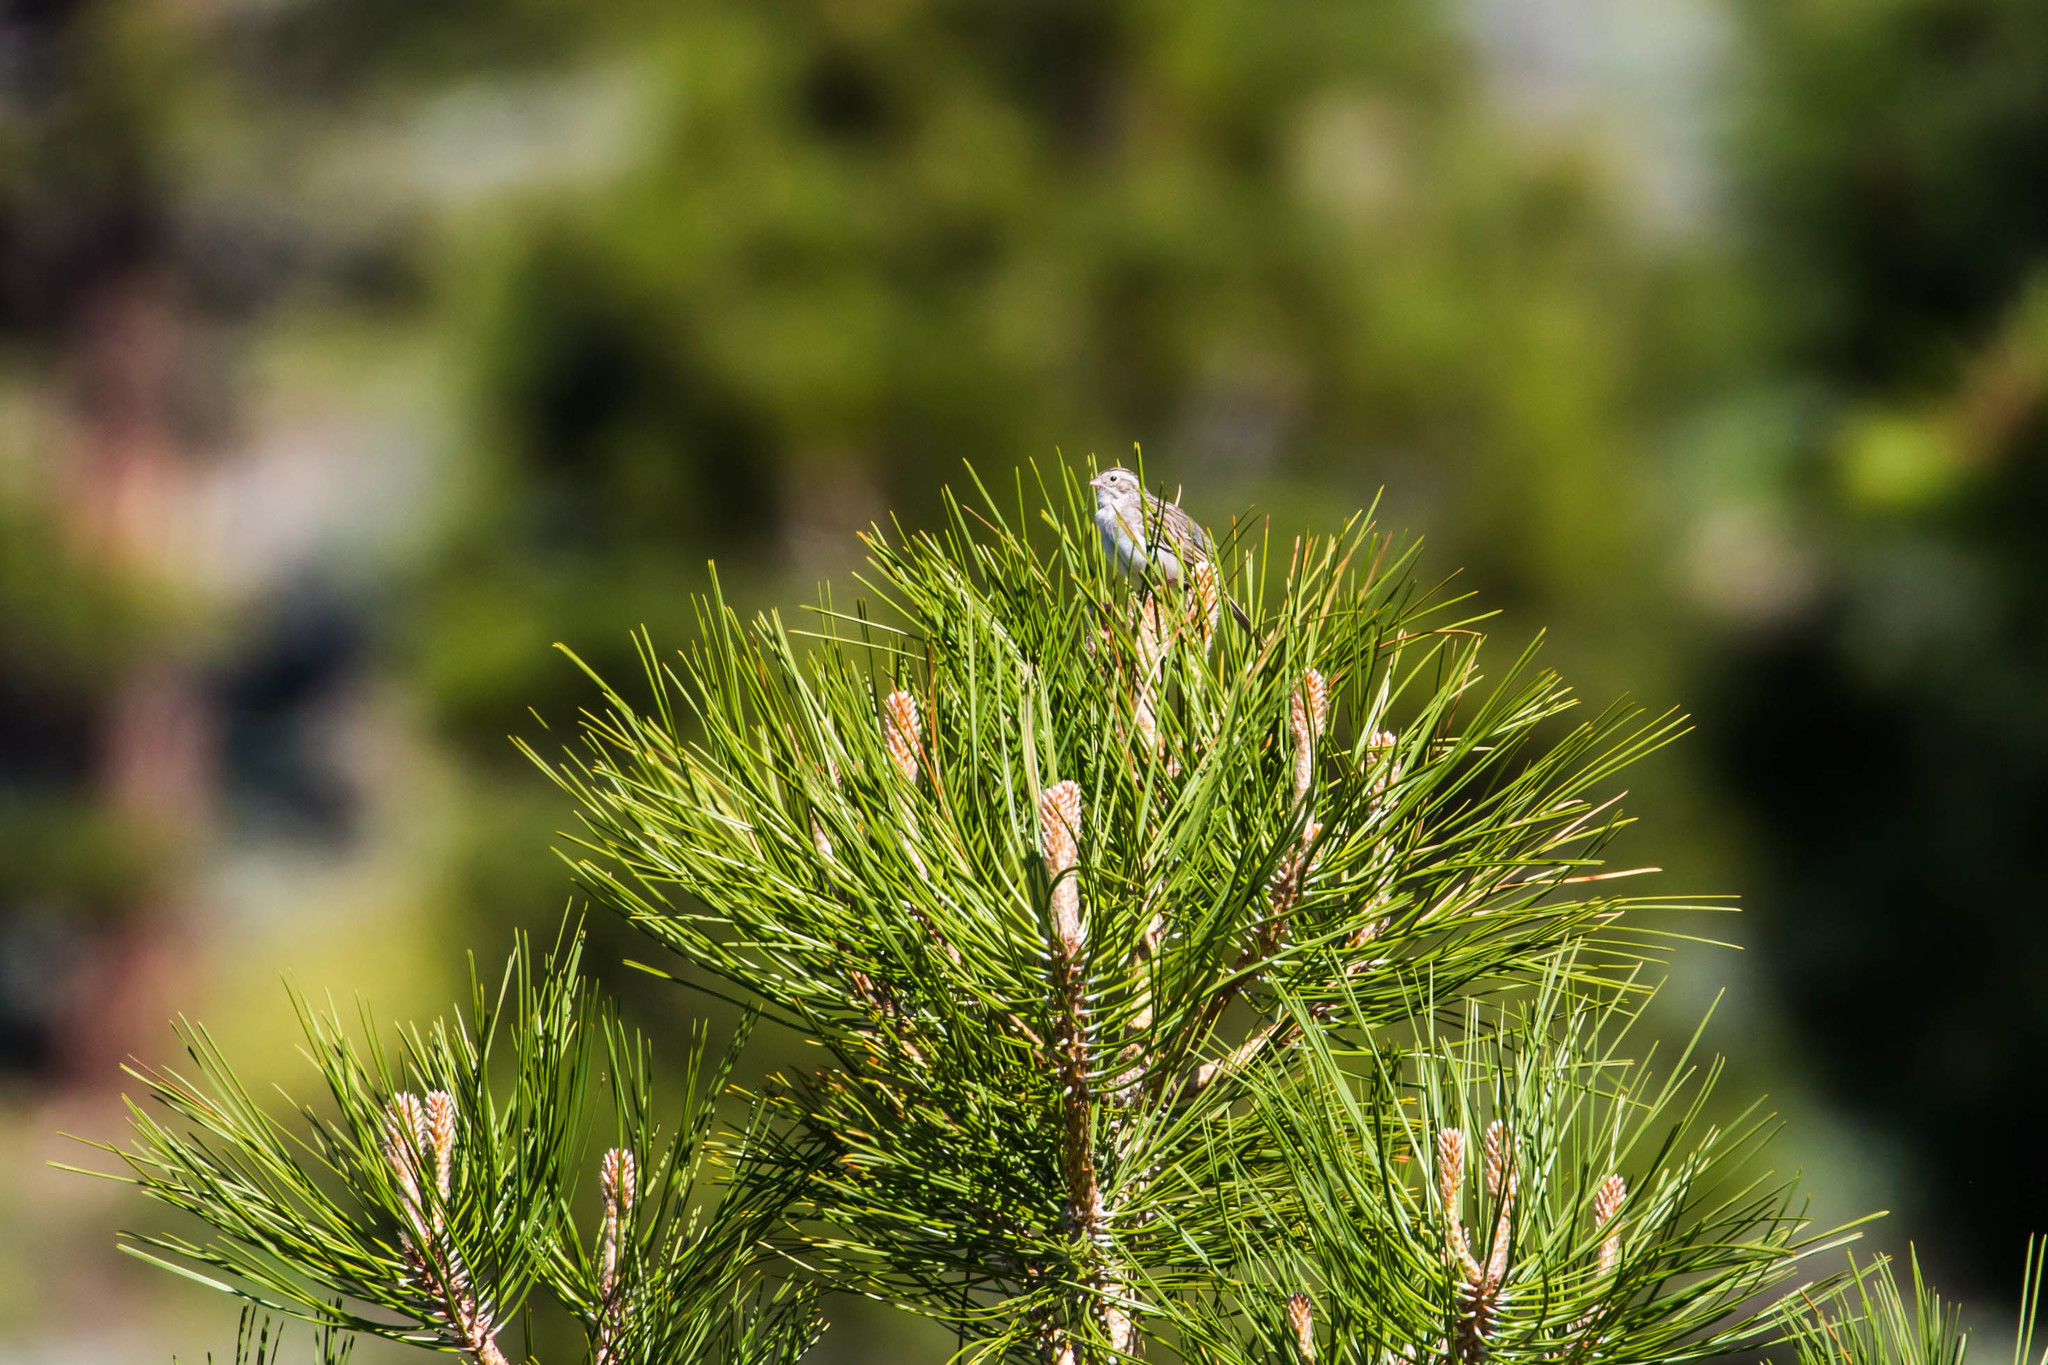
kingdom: Animalia
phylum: Chordata
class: Aves
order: Passeriformes
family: Passerellidae
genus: Spizella
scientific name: Spizella breweri
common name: Brewer's sparrow
